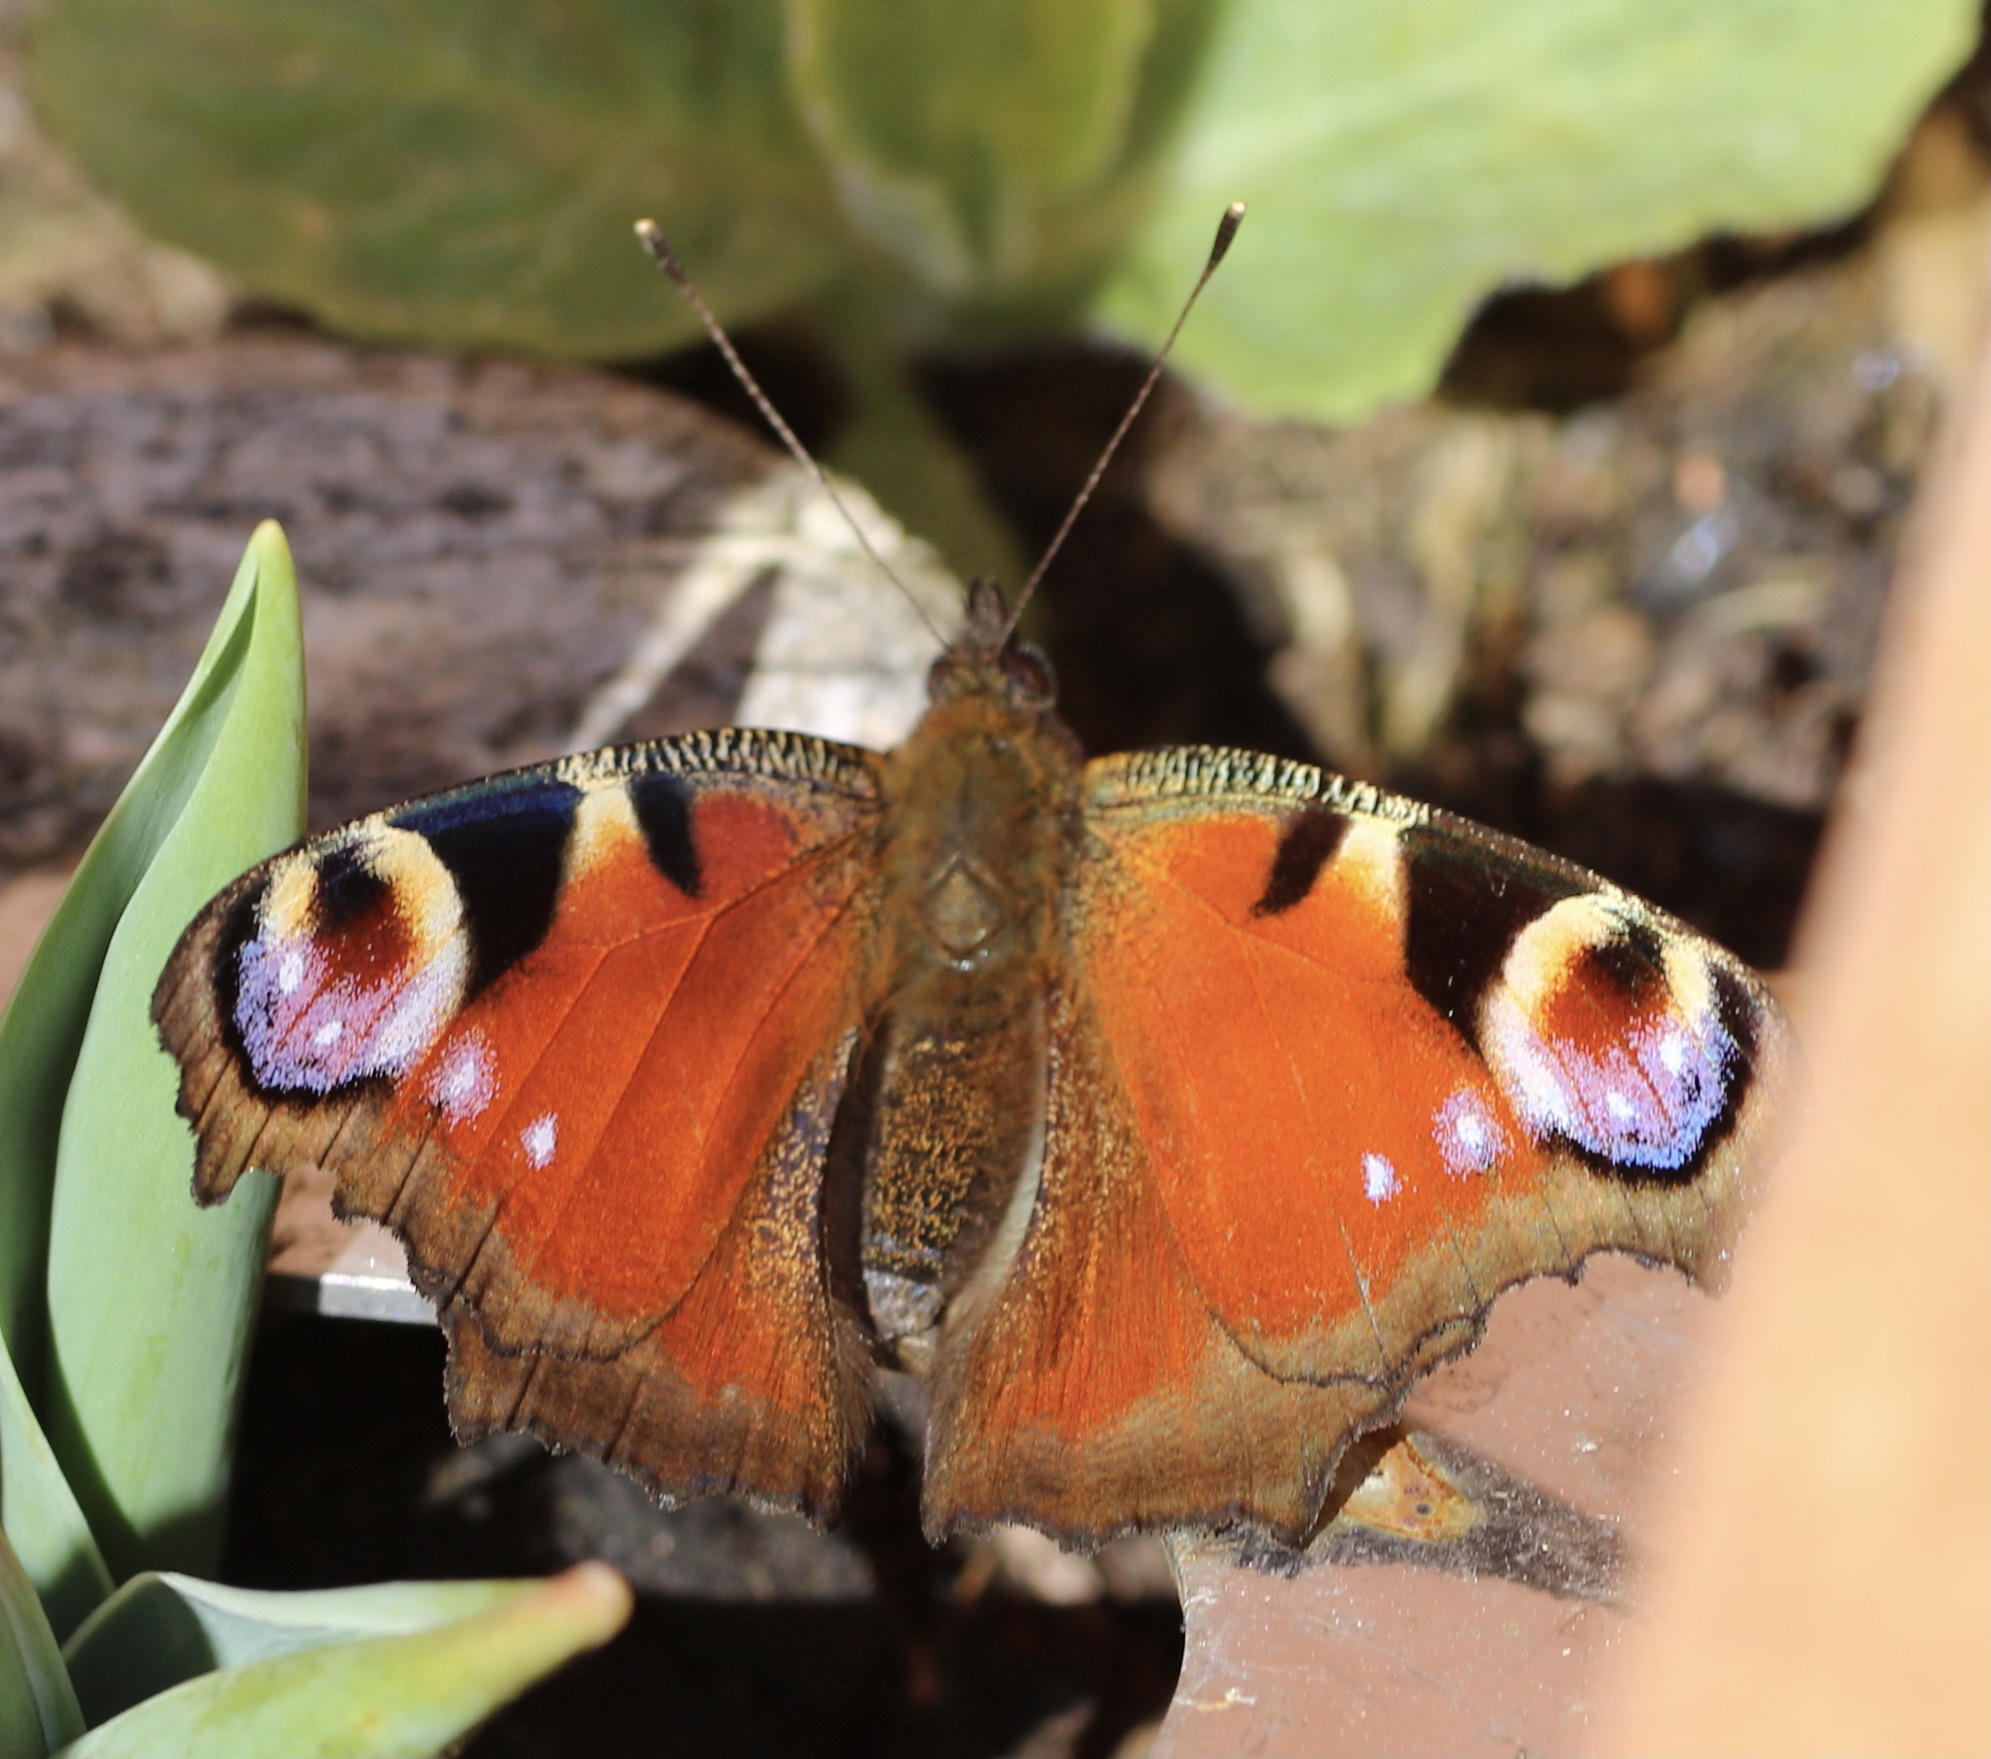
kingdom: Animalia
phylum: Arthropoda
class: Insecta
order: Lepidoptera
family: Nymphalidae
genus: Aglais
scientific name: Aglais io
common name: Peacock
